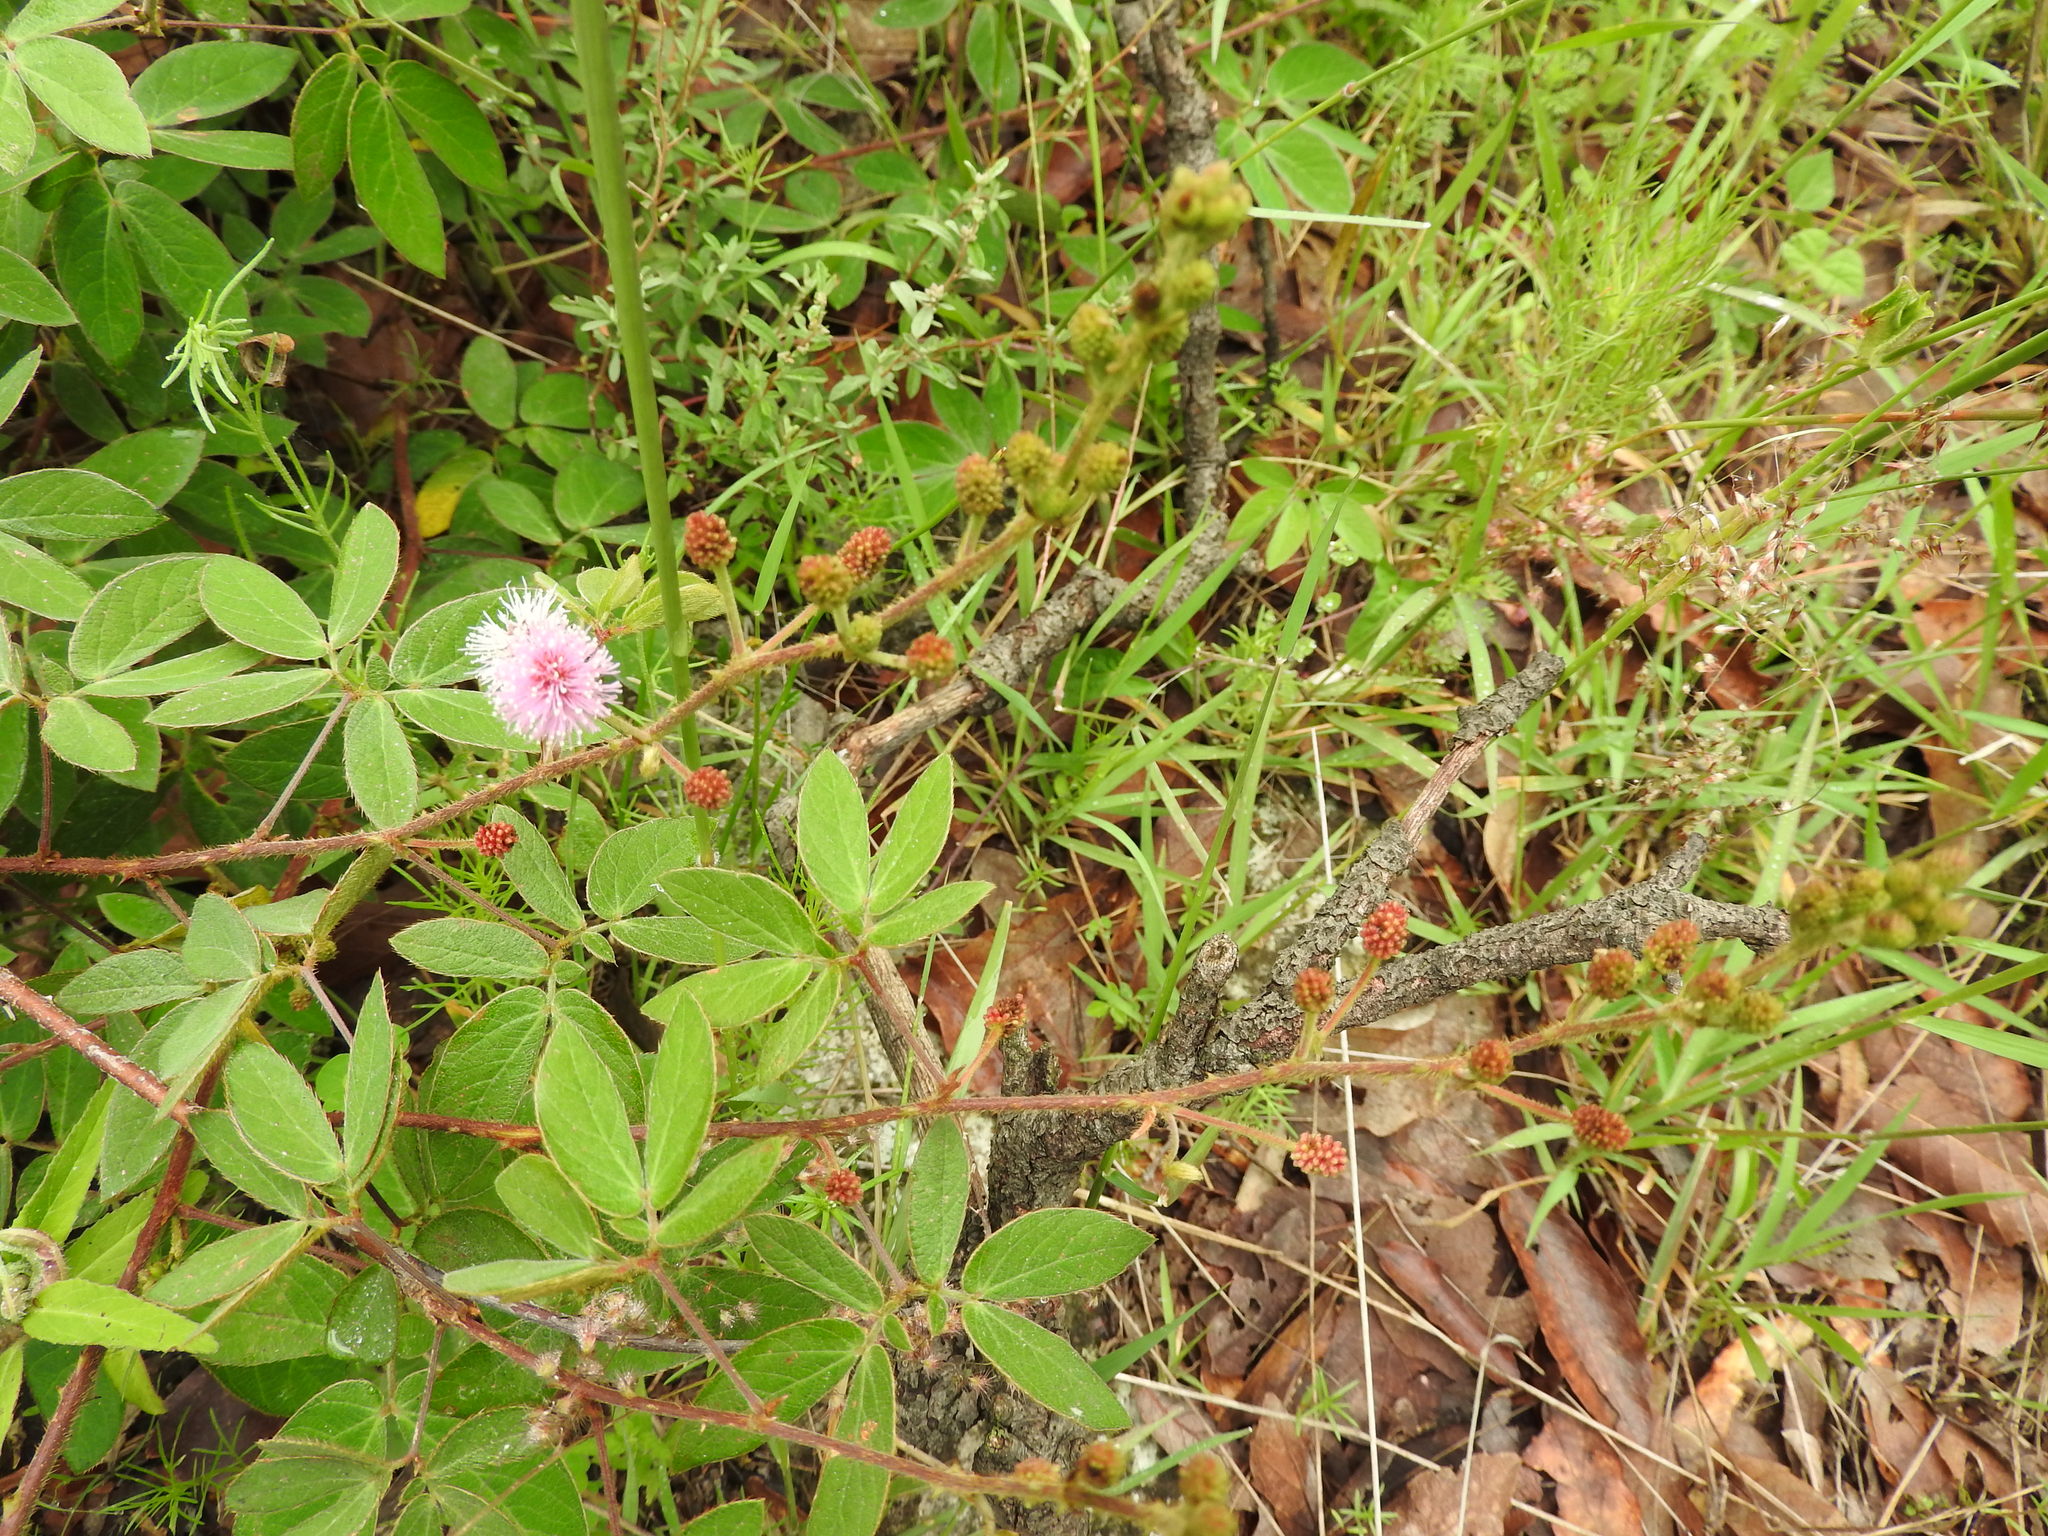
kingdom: Plantae
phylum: Tracheophyta
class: Magnoliopsida
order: Fabales
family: Fabaceae
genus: Mimosa
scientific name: Mimosa albida
